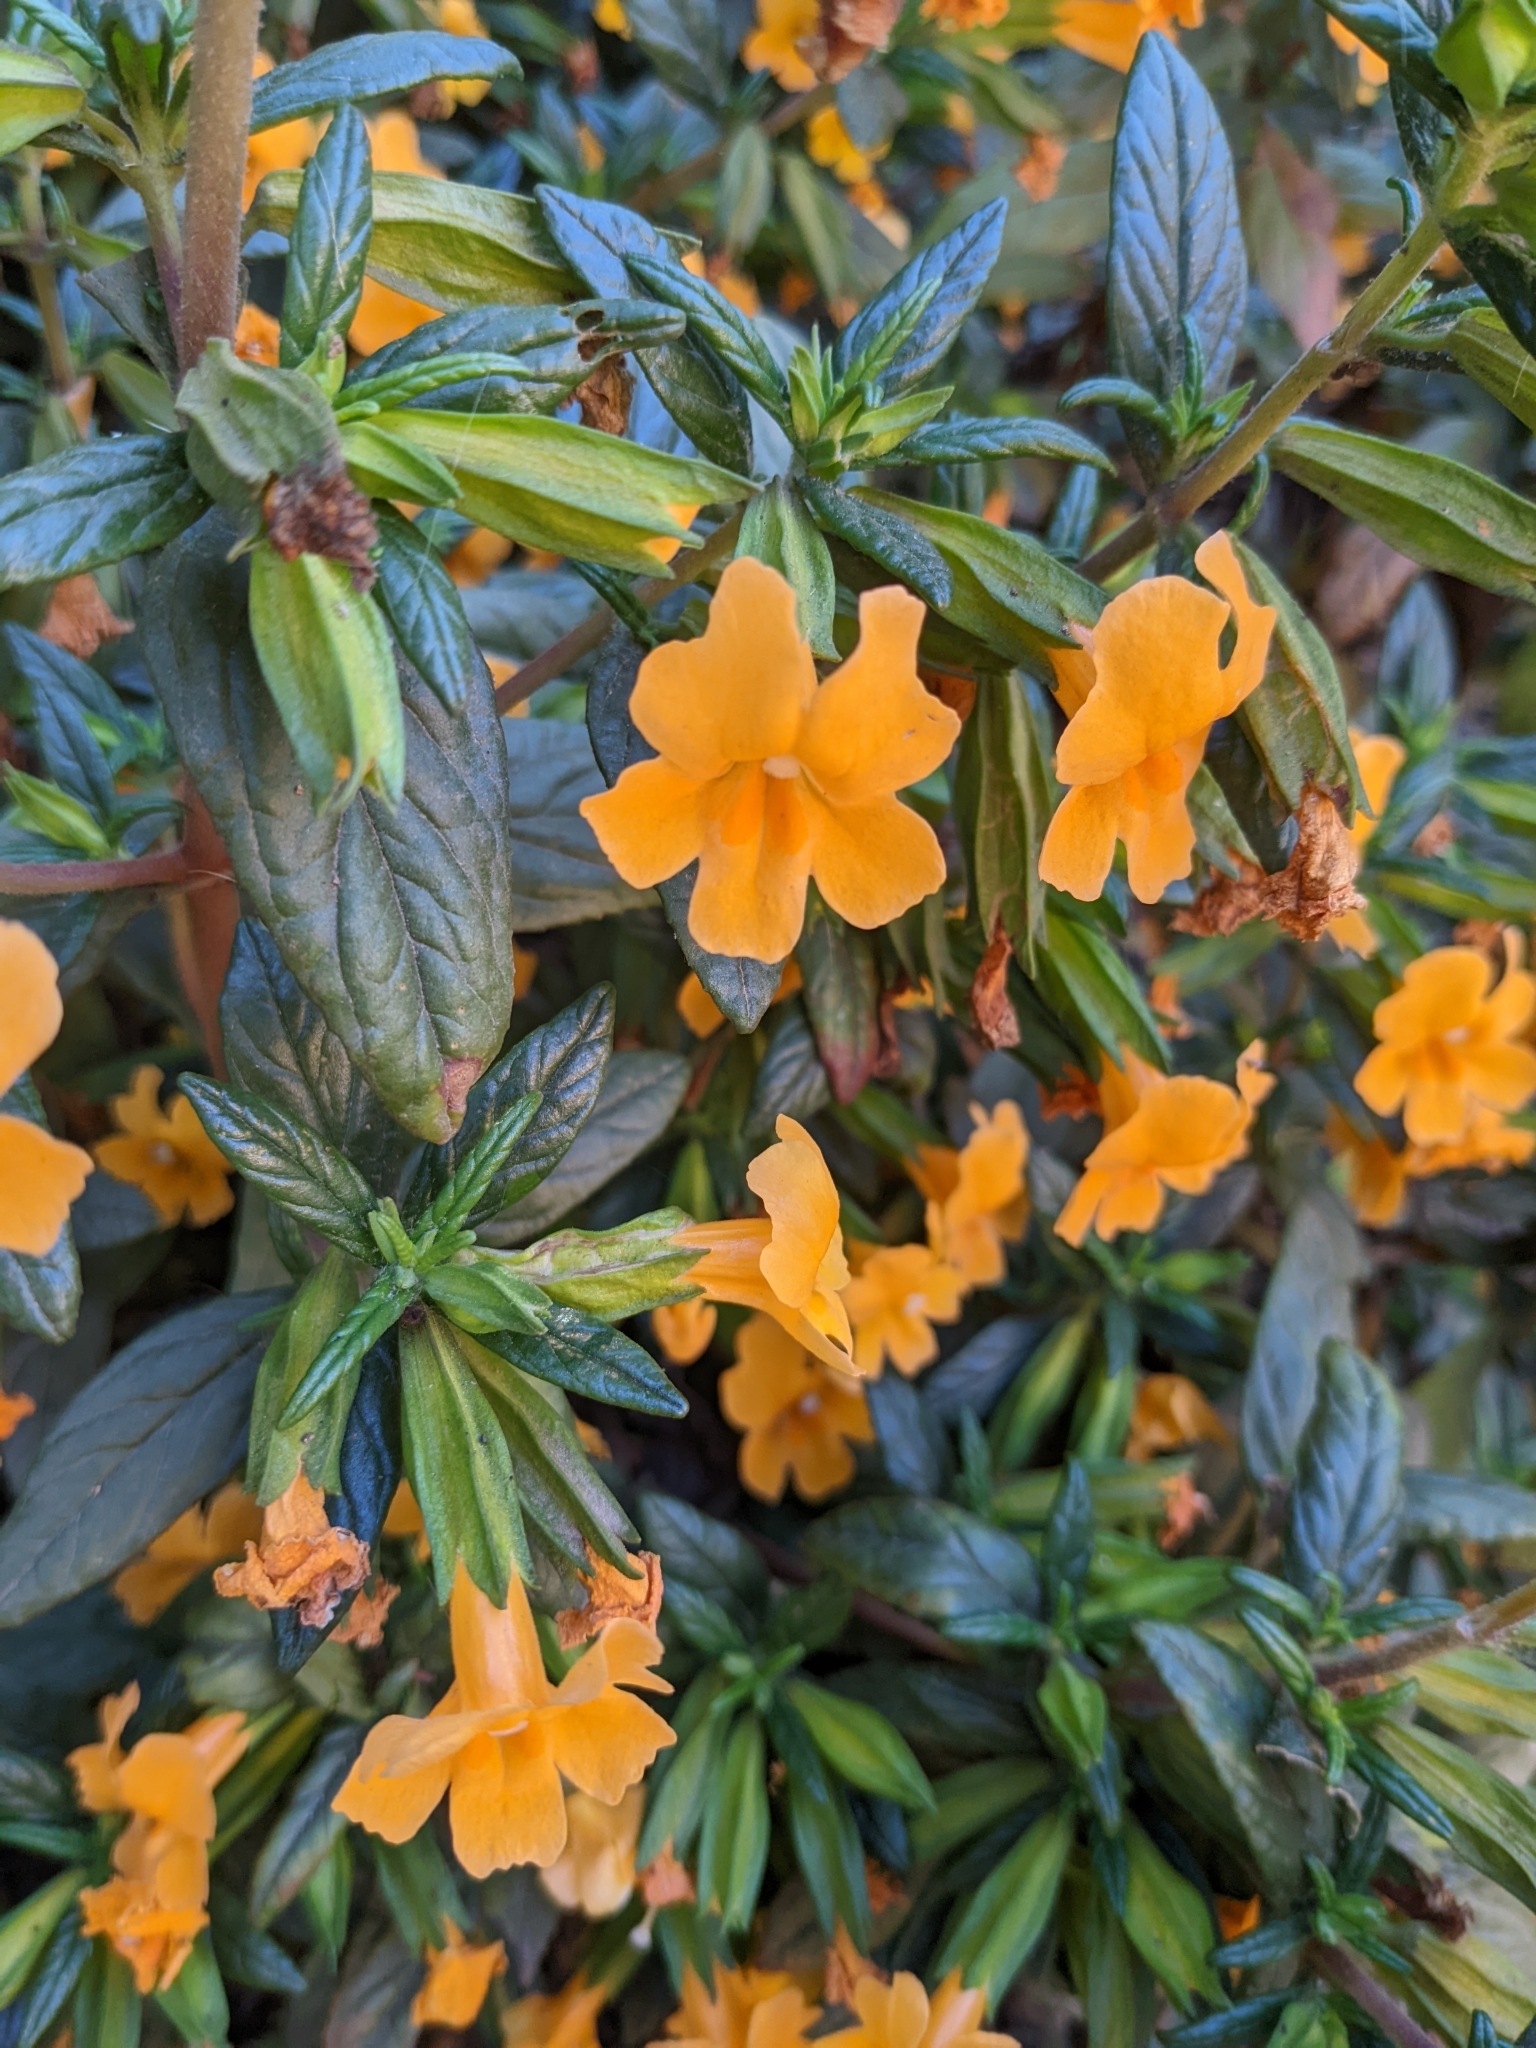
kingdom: Plantae
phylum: Tracheophyta
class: Magnoliopsida
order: Lamiales
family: Phrymaceae
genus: Diplacus
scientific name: Diplacus aurantiacus
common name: Bush monkey-flower
